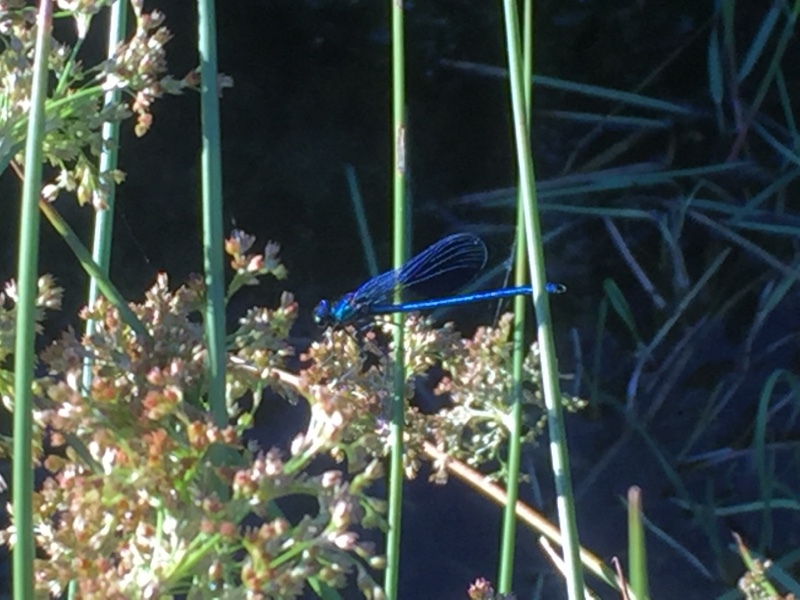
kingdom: Animalia
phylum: Arthropoda
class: Insecta
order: Odonata
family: Calopterygidae
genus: Calopteryx
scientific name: Calopteryx xanthostoma
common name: Western demoiselle
